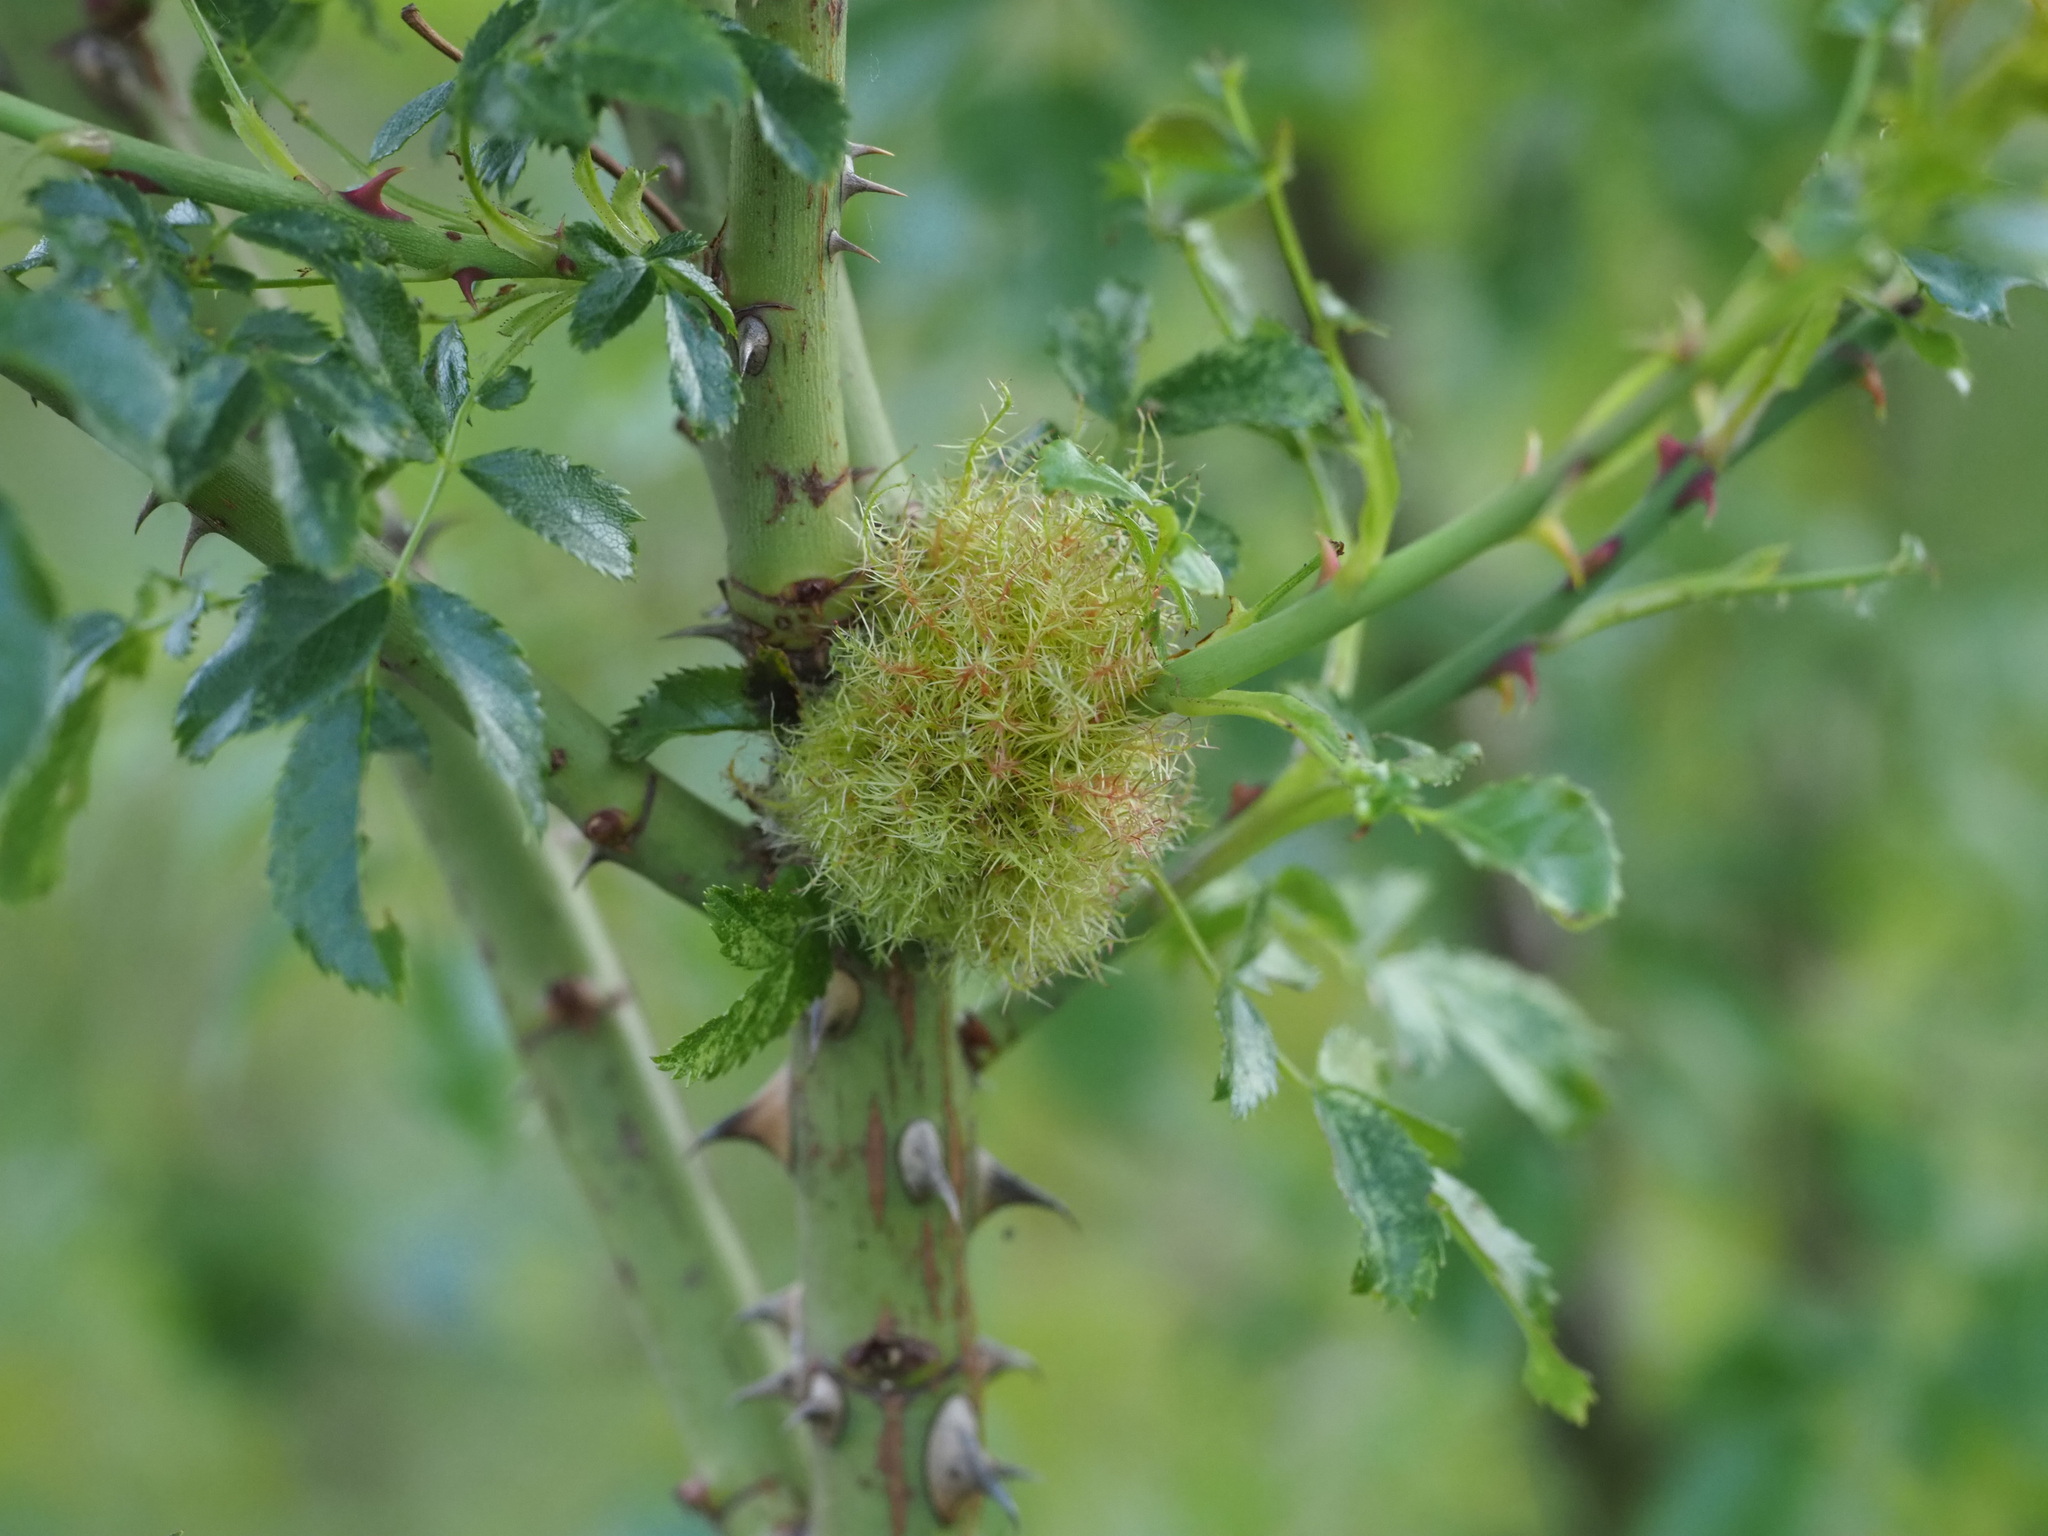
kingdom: Animalia
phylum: Arthropoda
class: Insecta
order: Hymenoptera
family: Cynipidae
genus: Diplolepis
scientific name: Diplolepis rosae
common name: Bedeguar gall
